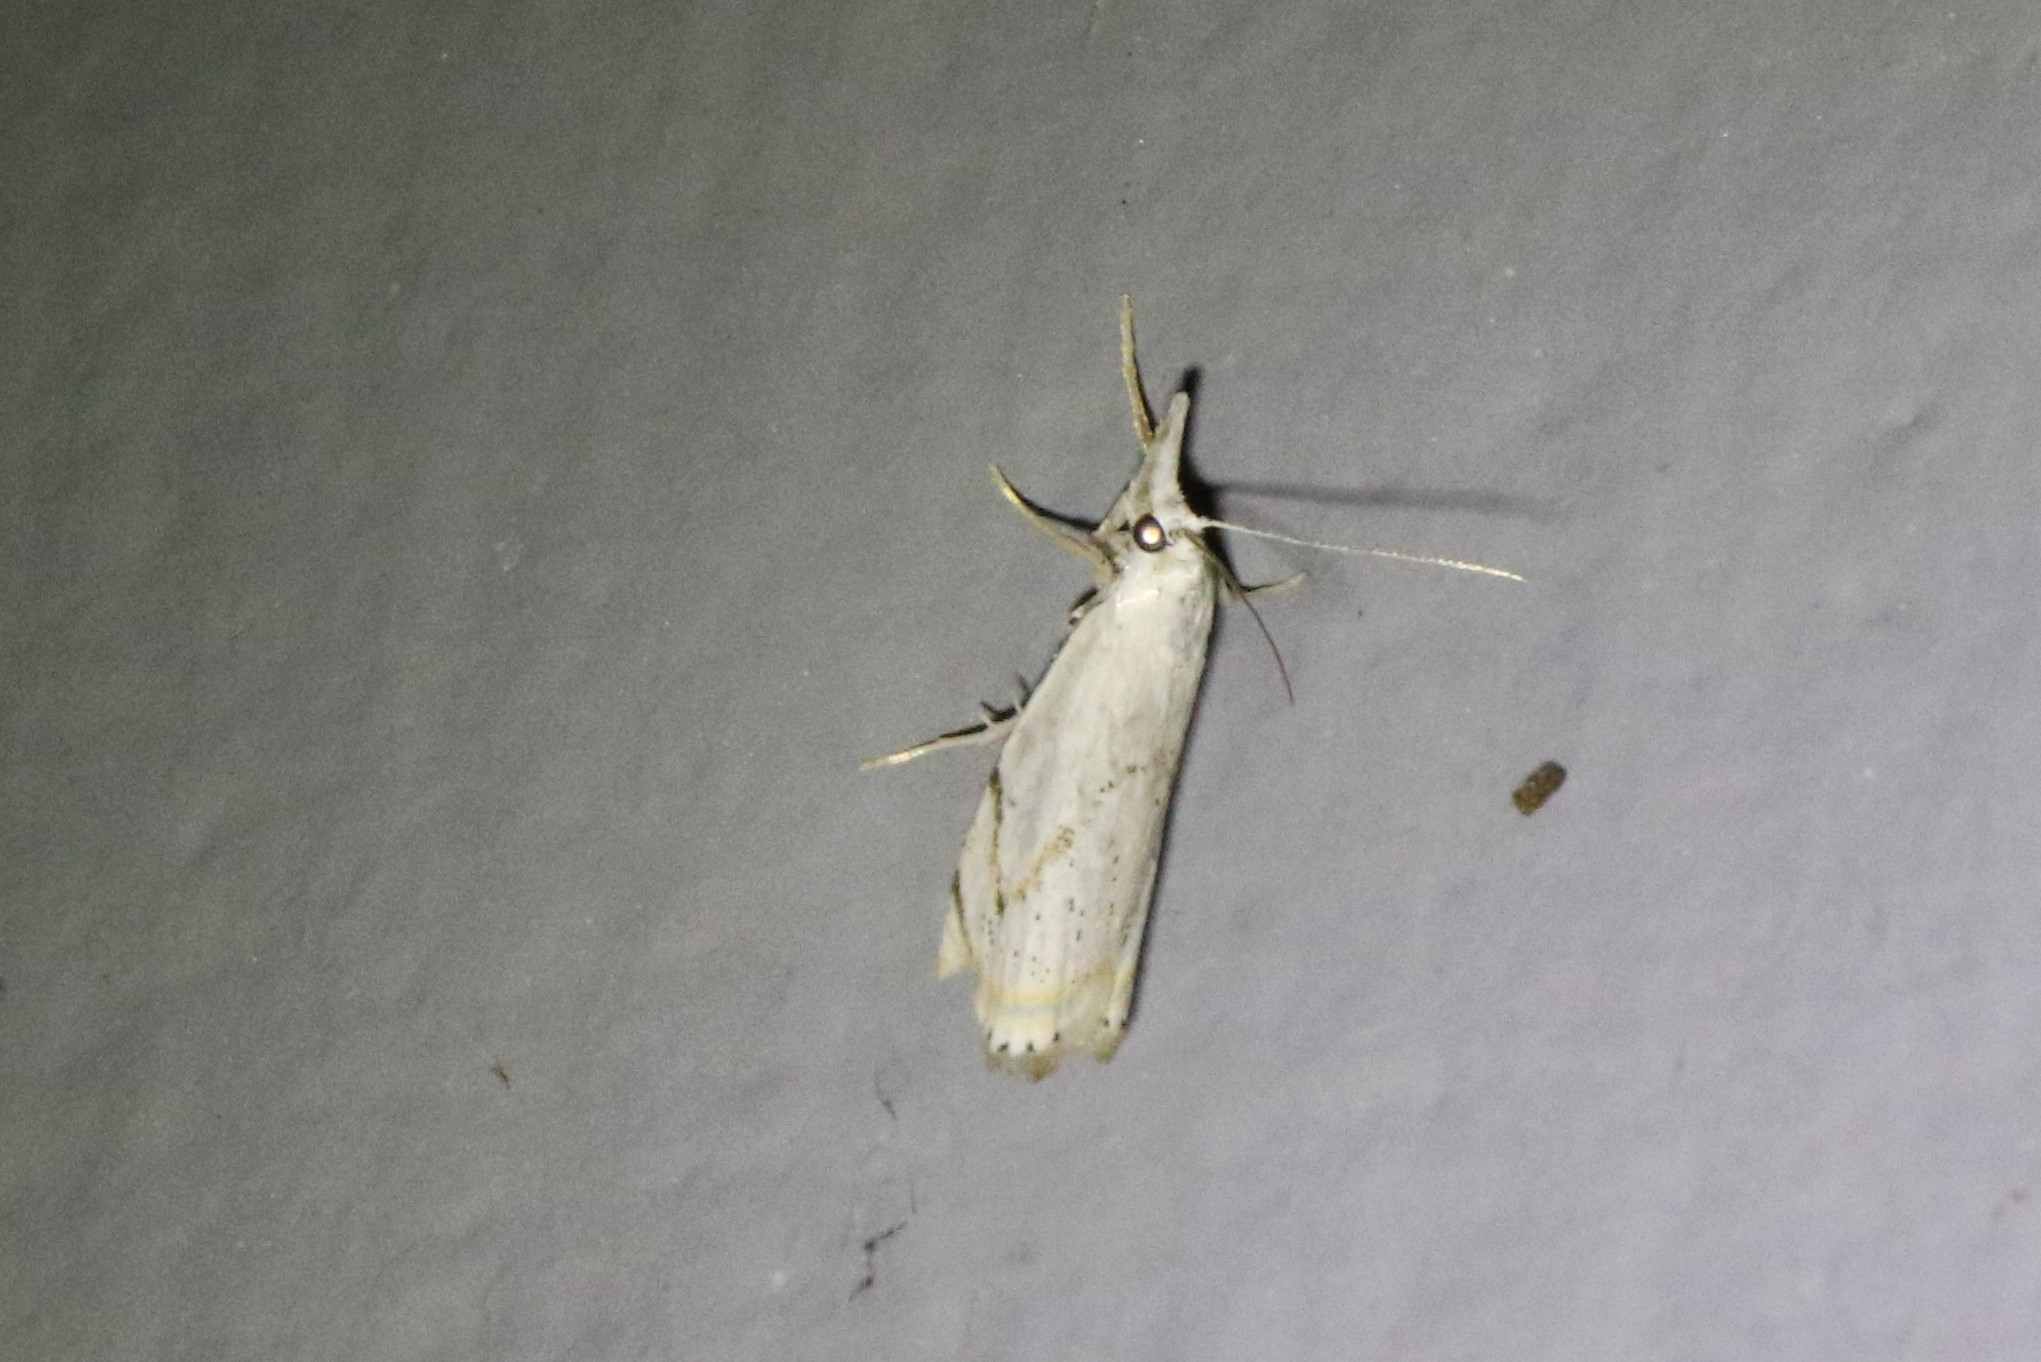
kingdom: Animalia
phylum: Arthropoda
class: Insecta
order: Lepidoptera
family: Crambidae
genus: Crambus
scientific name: Crambus albellus
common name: Small white grass-veneer
